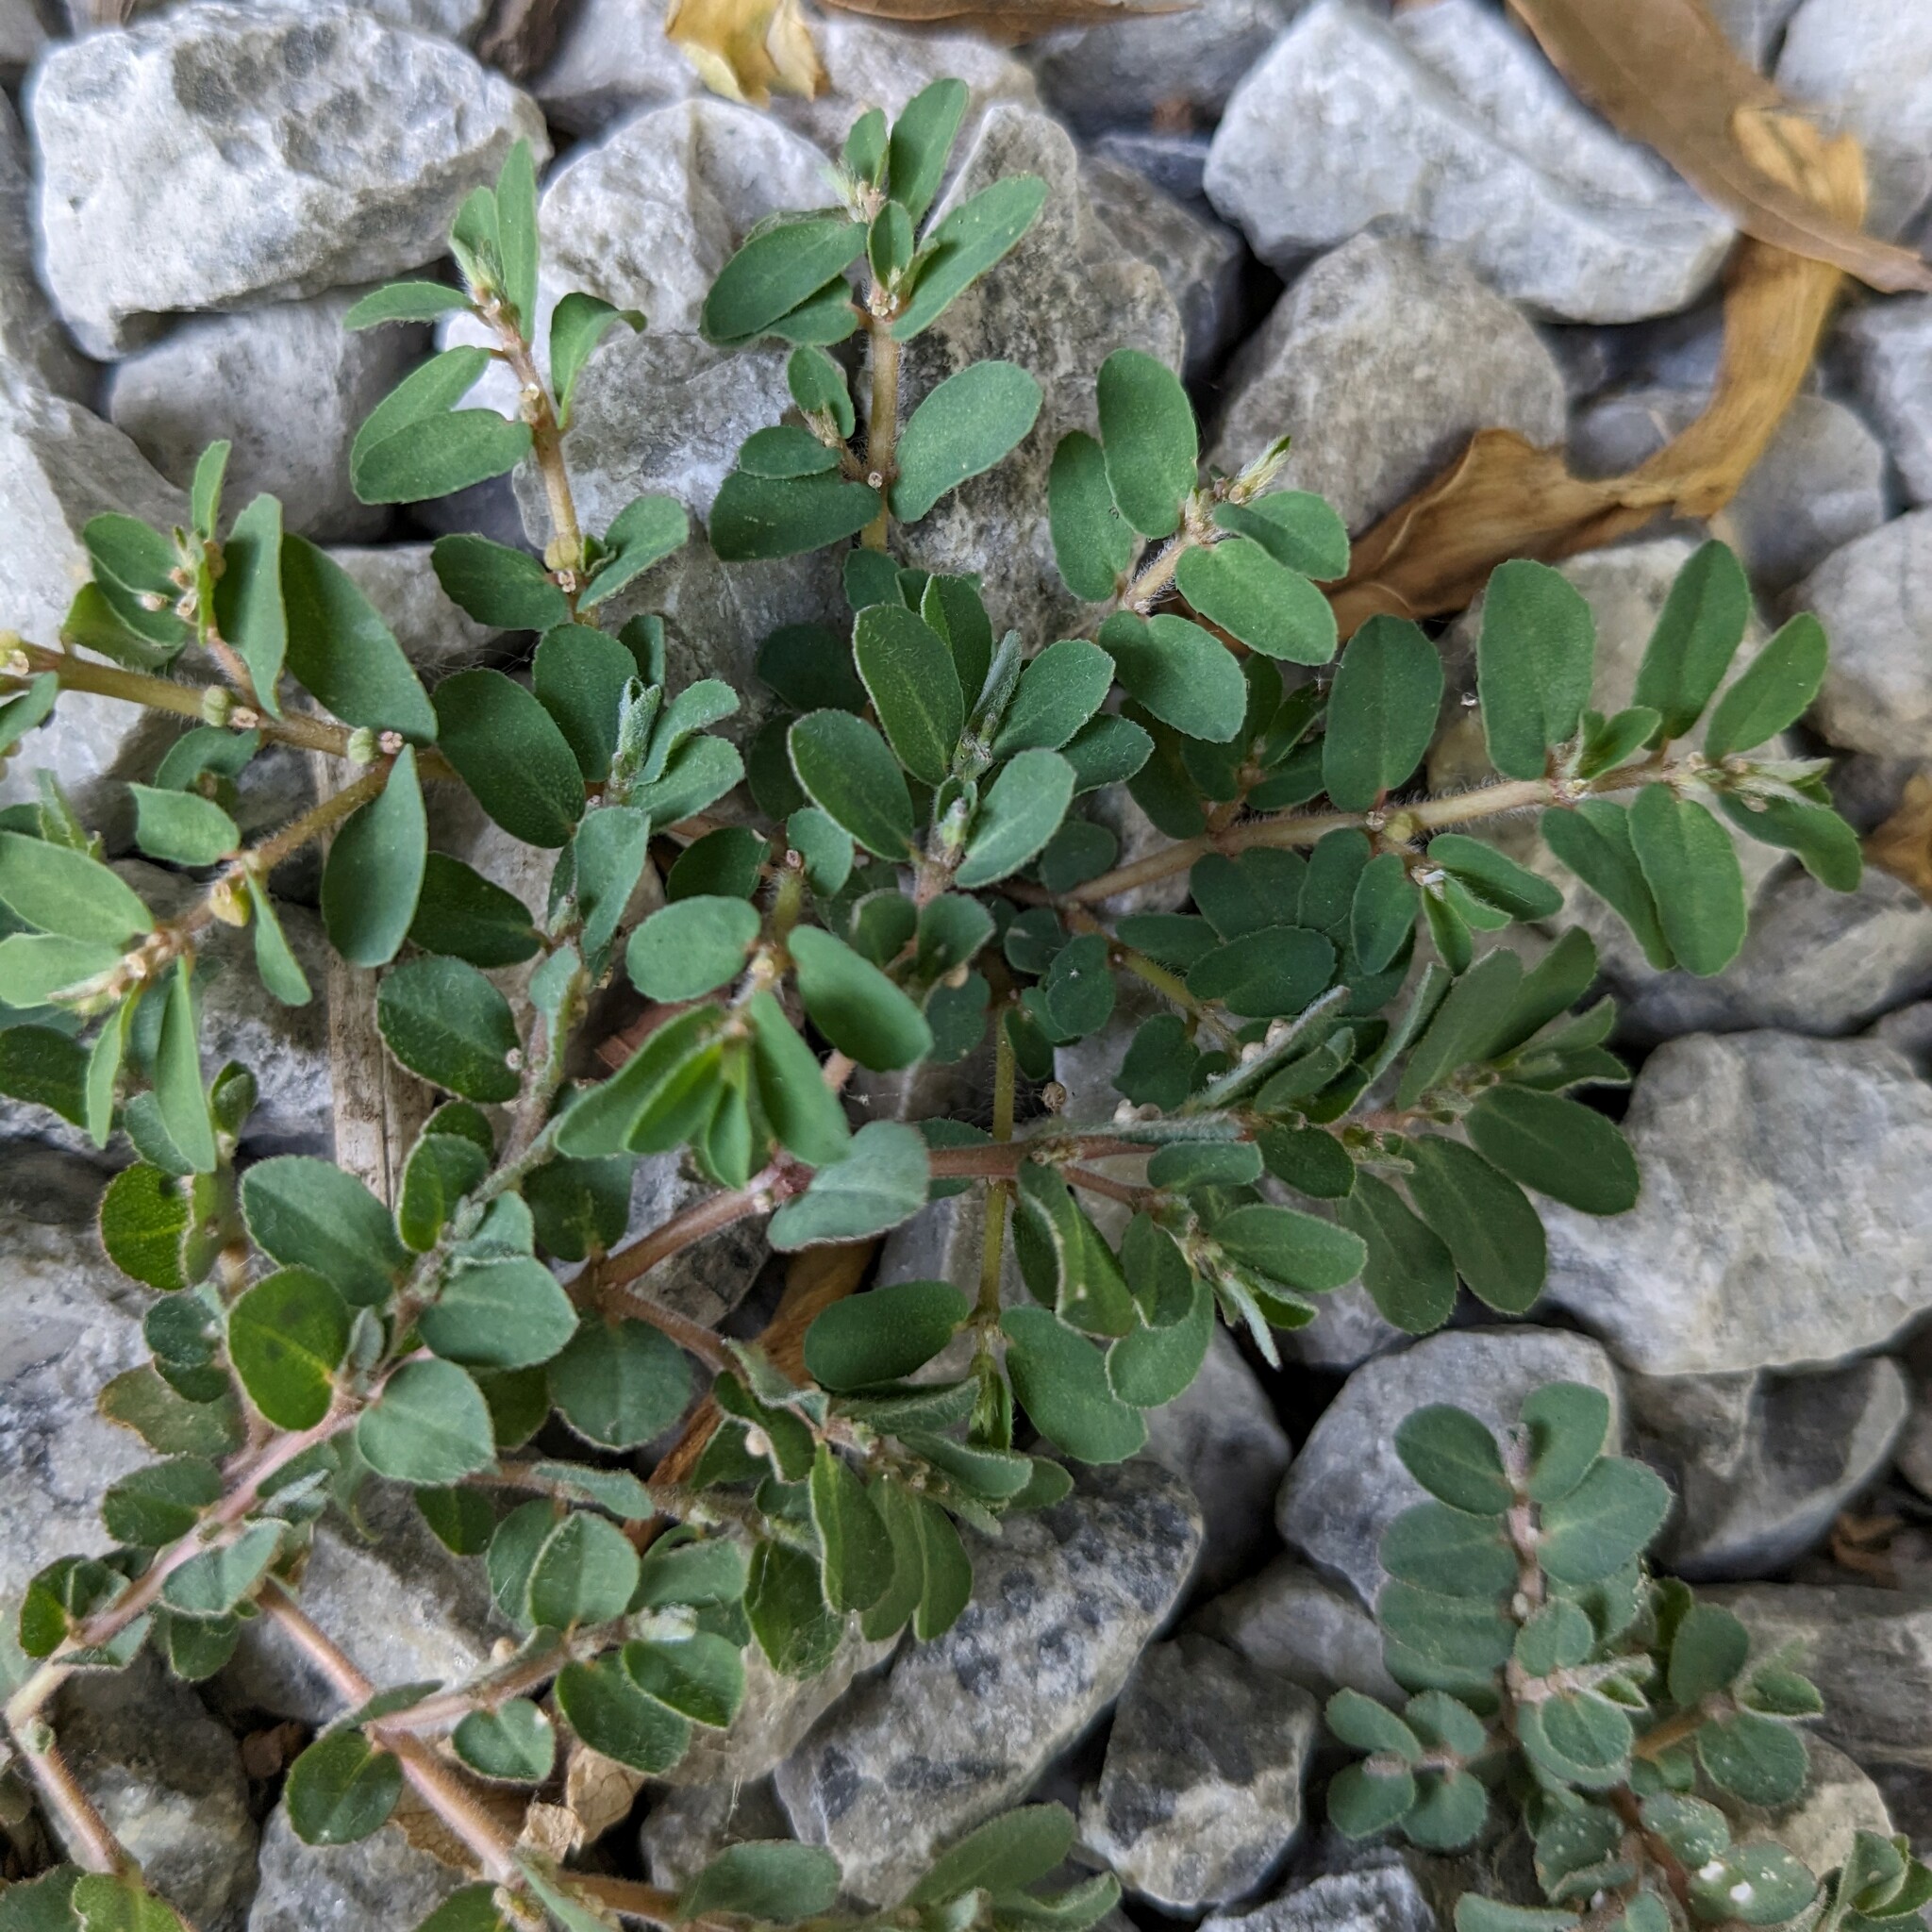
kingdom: Plantae
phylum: Tracheophyta
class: Magnoliopsida
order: Malpighiales
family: Euphorbiaceae
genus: Euphorbia
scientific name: Euphorbia maculata
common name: Spotted spurge
